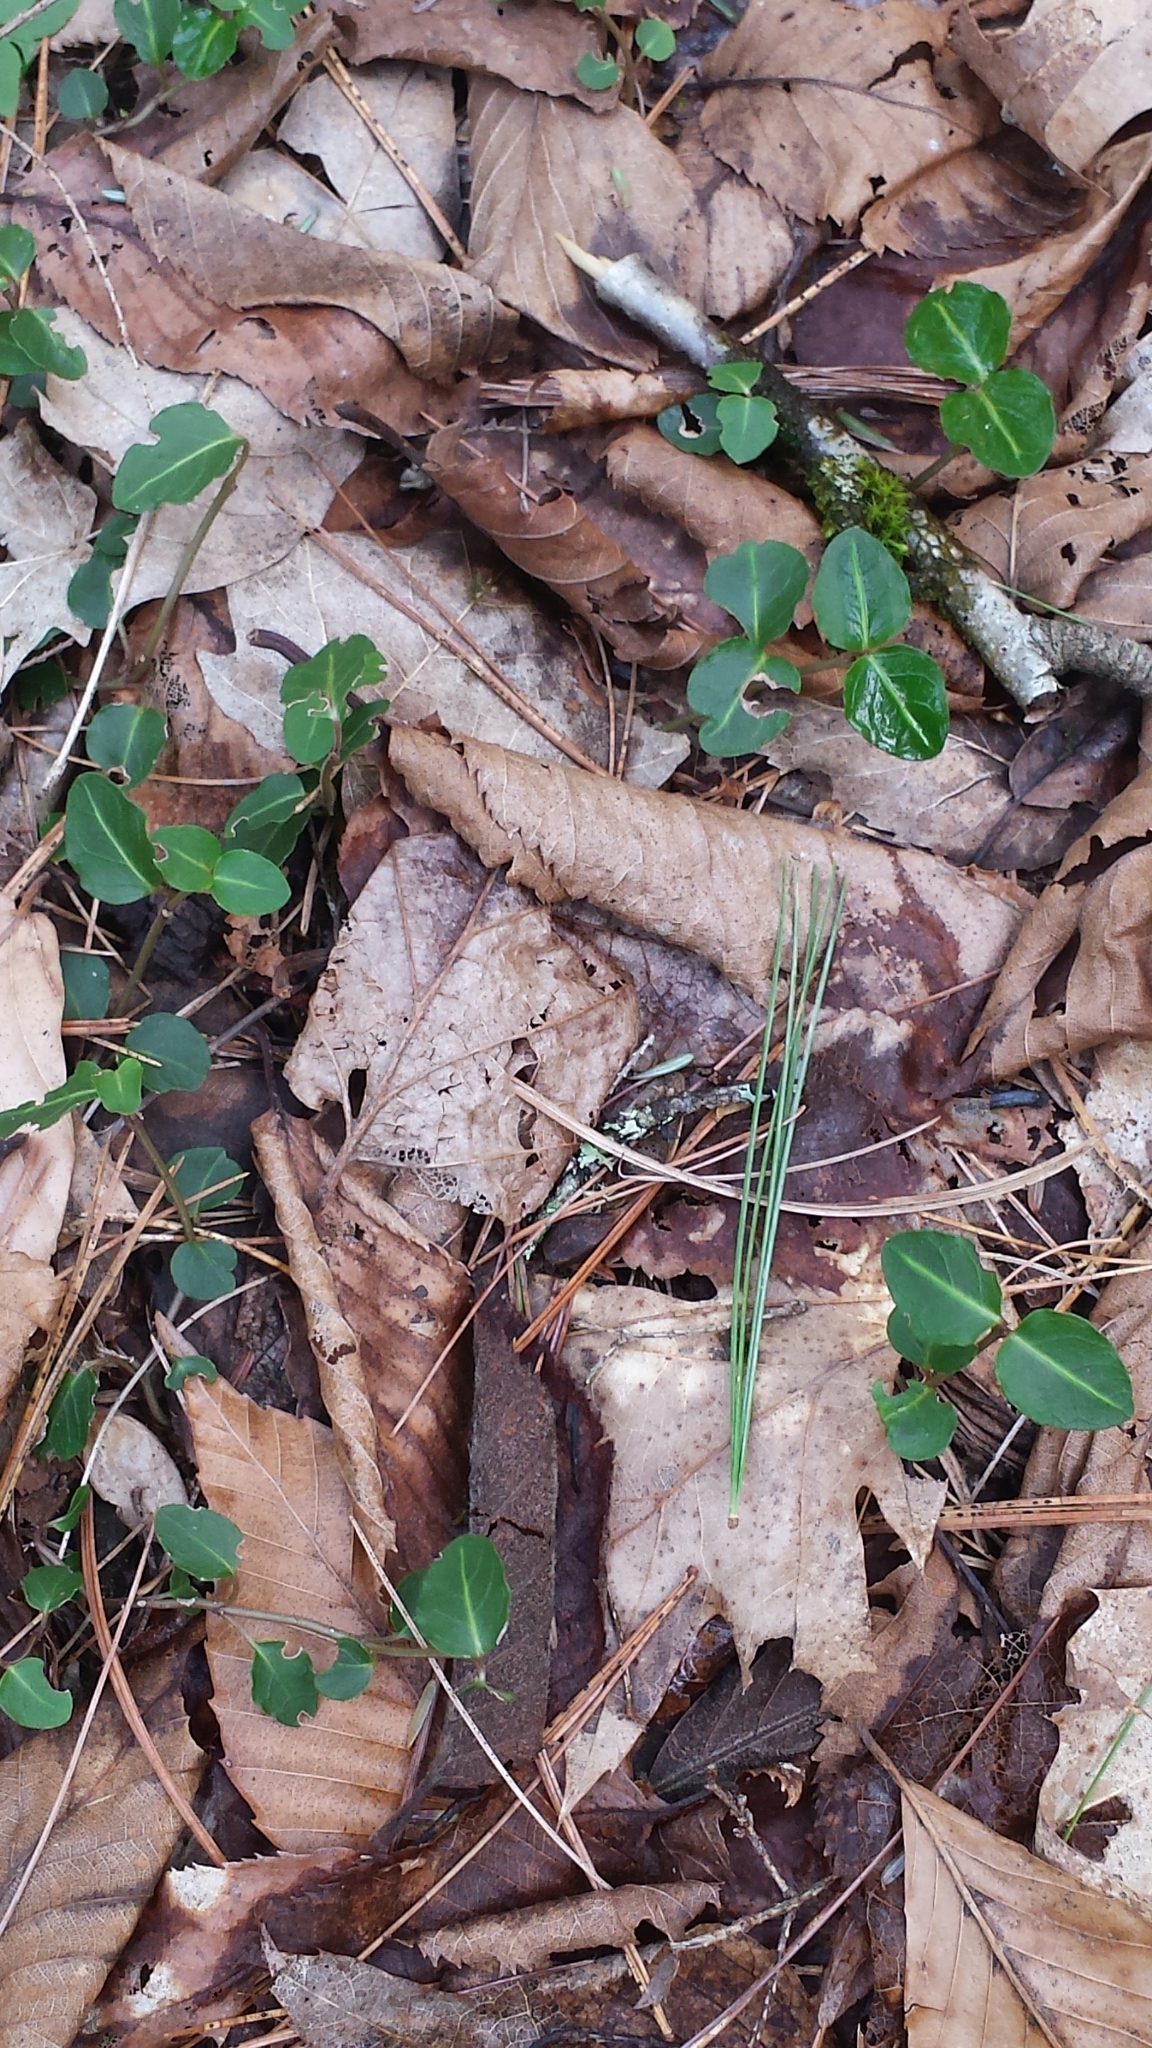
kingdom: Plantae
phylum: Tracheophyta
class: Magnoliopsida
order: Gentianales
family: Rubiaceae
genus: Mitchella
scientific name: Mitchella repens
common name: Partridge-berry
